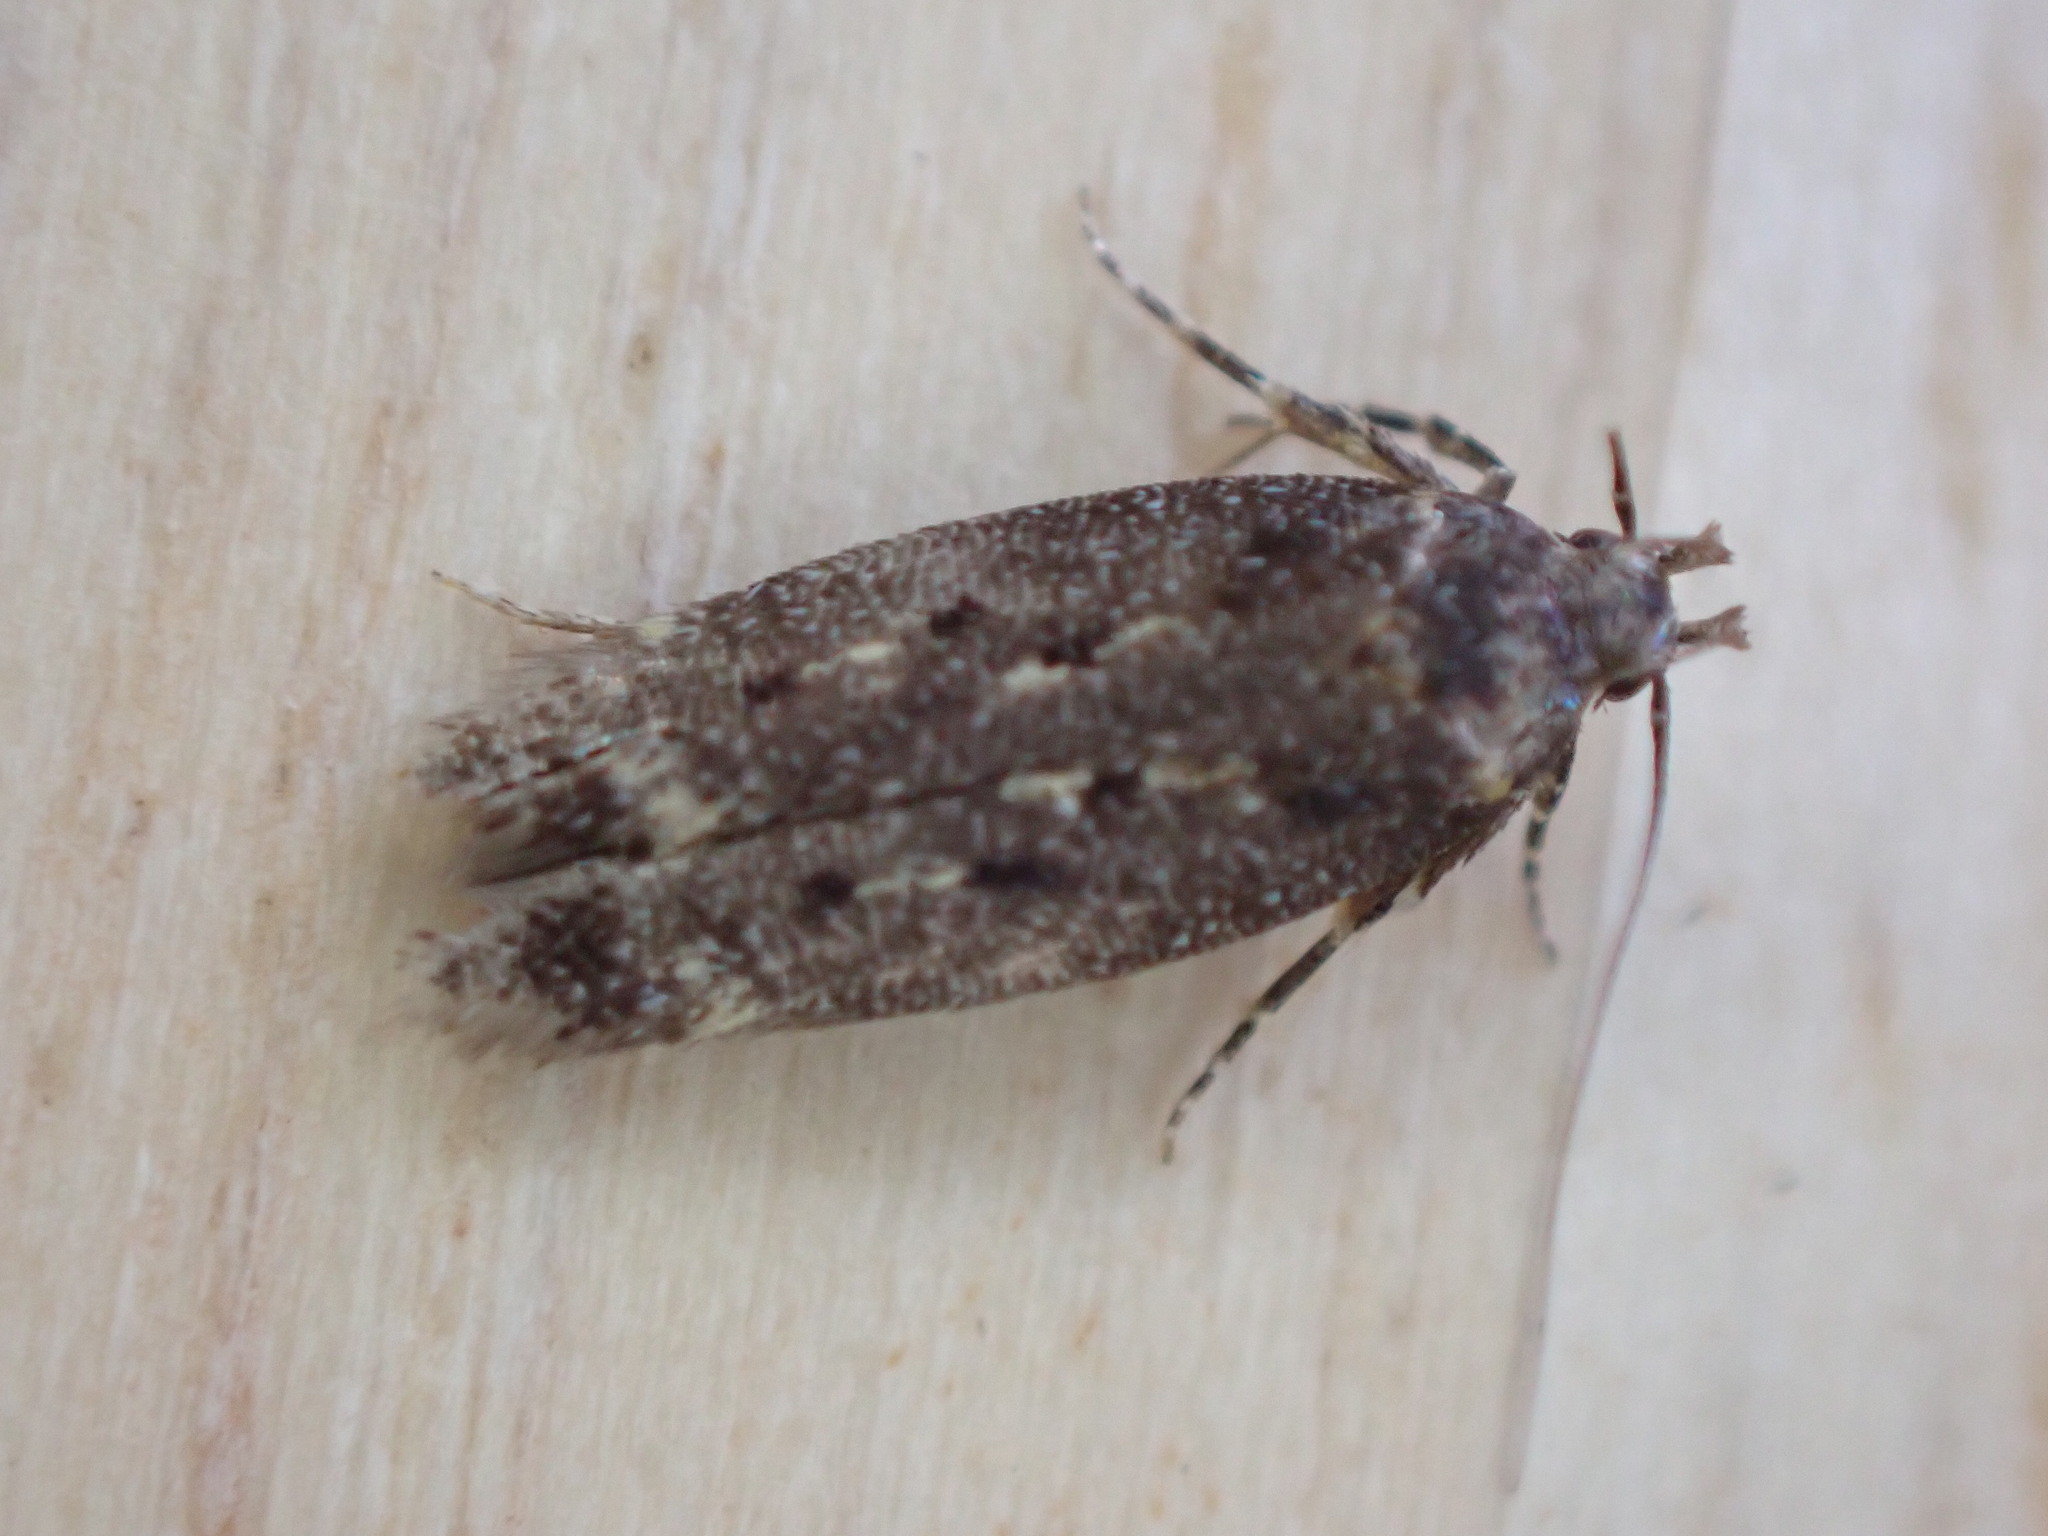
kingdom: Animalia
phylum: Arthropoda
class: Insecta
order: Lepidoptera
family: Gelechiidae
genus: Bryotropha
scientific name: Bryotropha affinis
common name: Dark groundling
